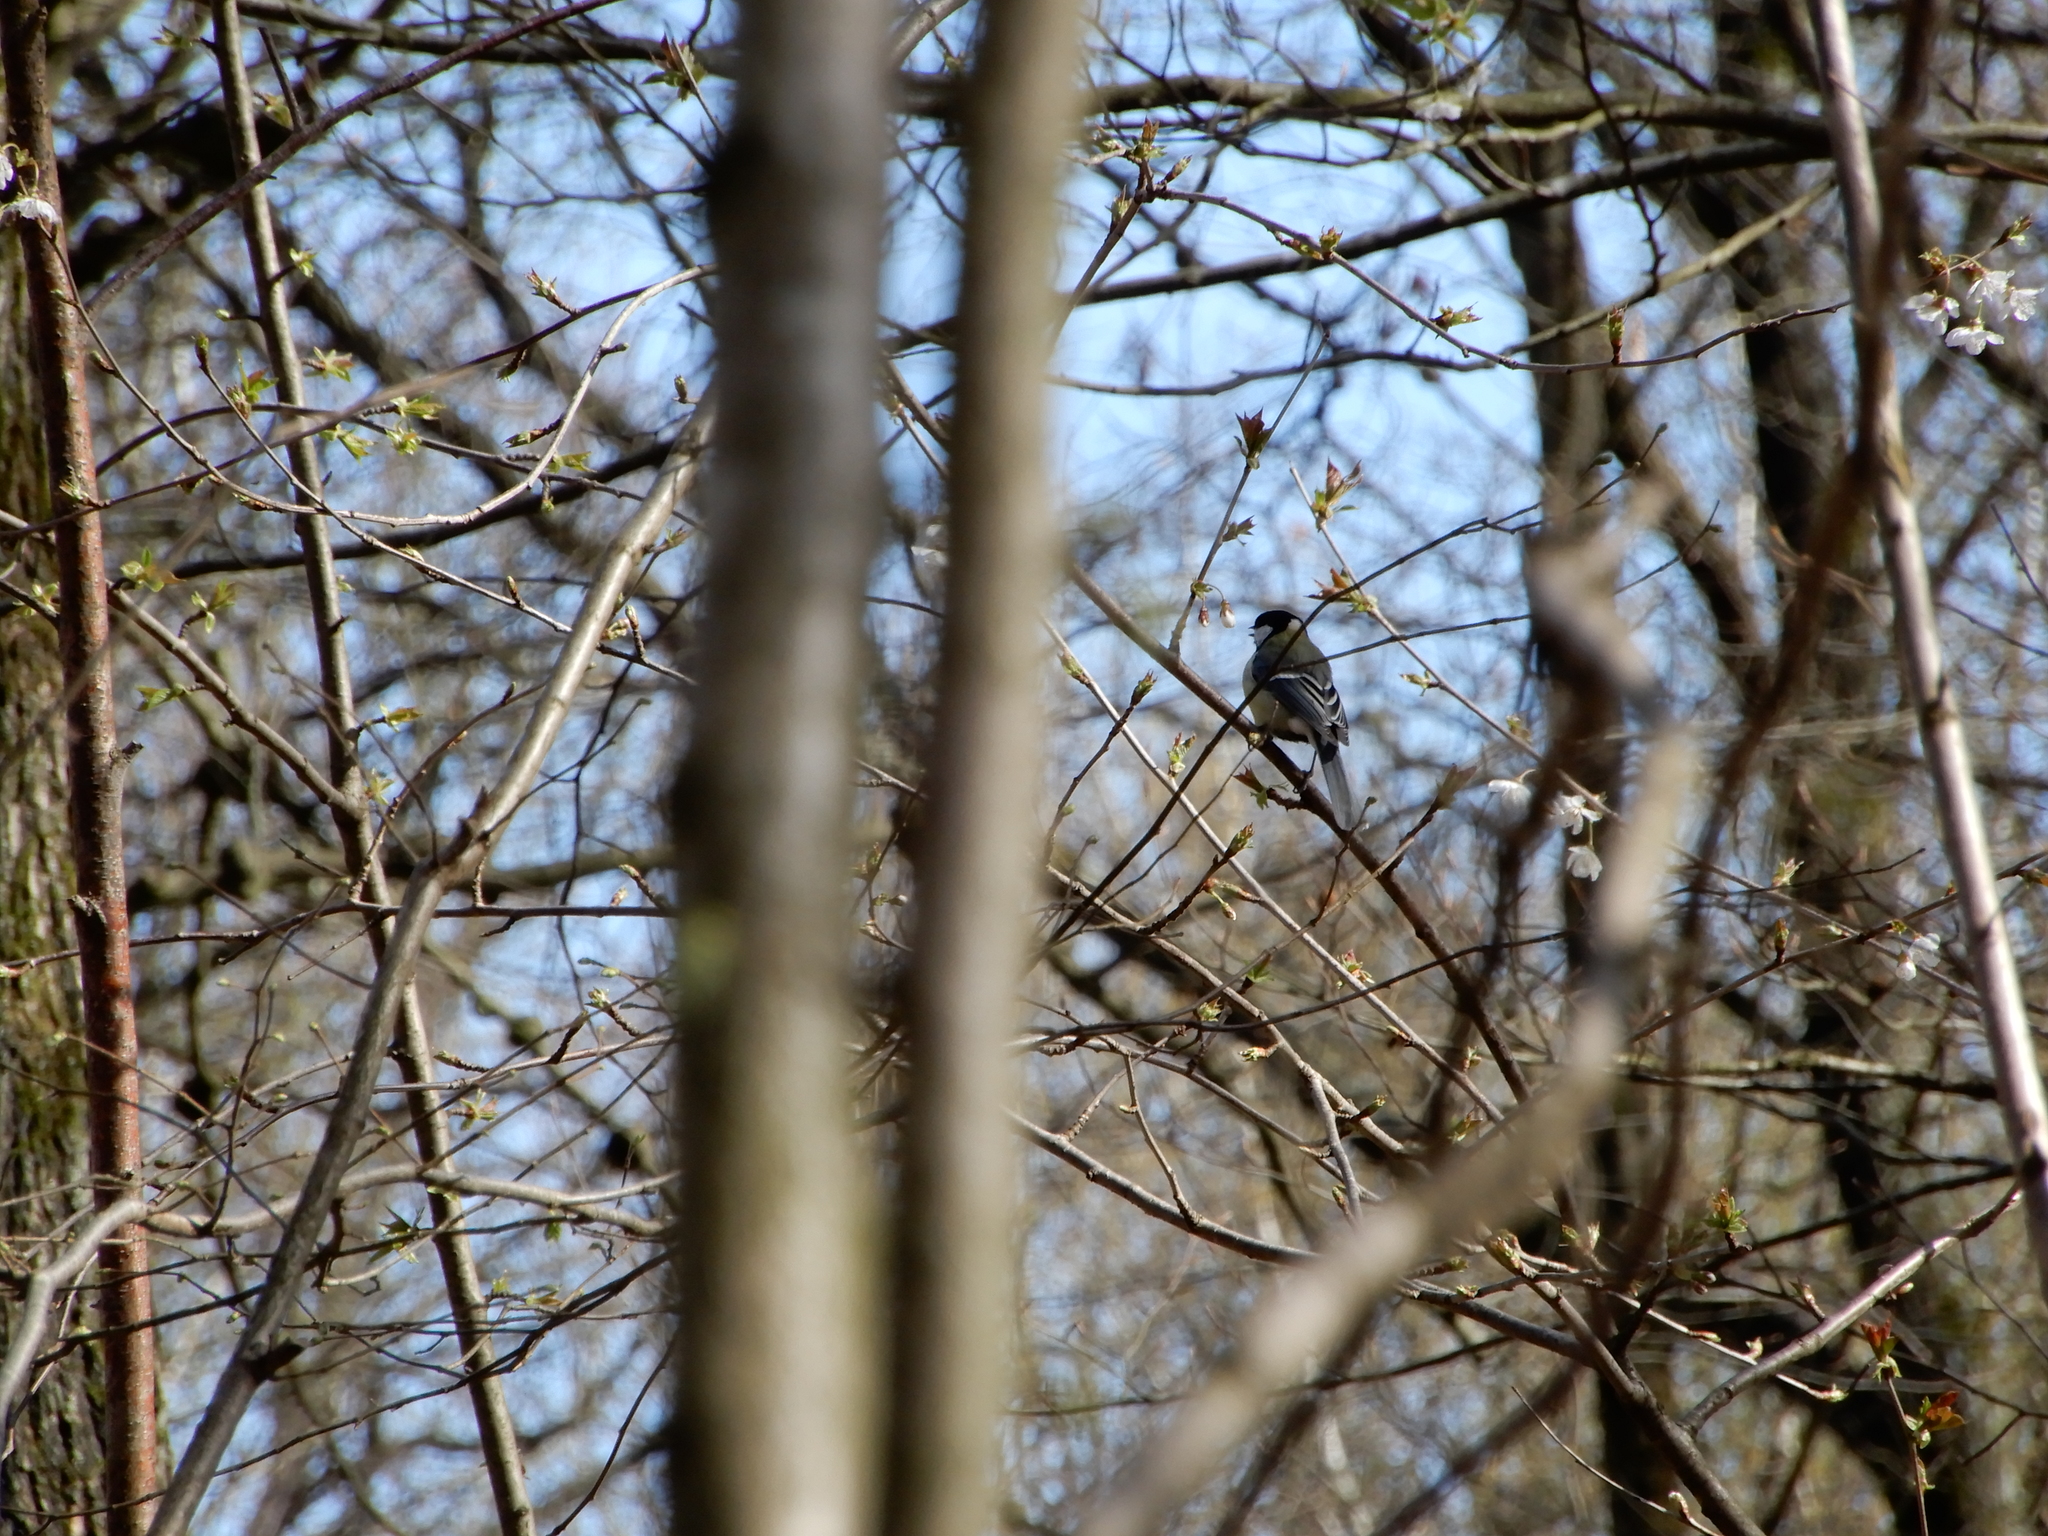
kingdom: Animalia
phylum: Chordata
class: Aves
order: Passeriformes
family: Paridae
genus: Parus
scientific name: Parus major
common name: Great tit
